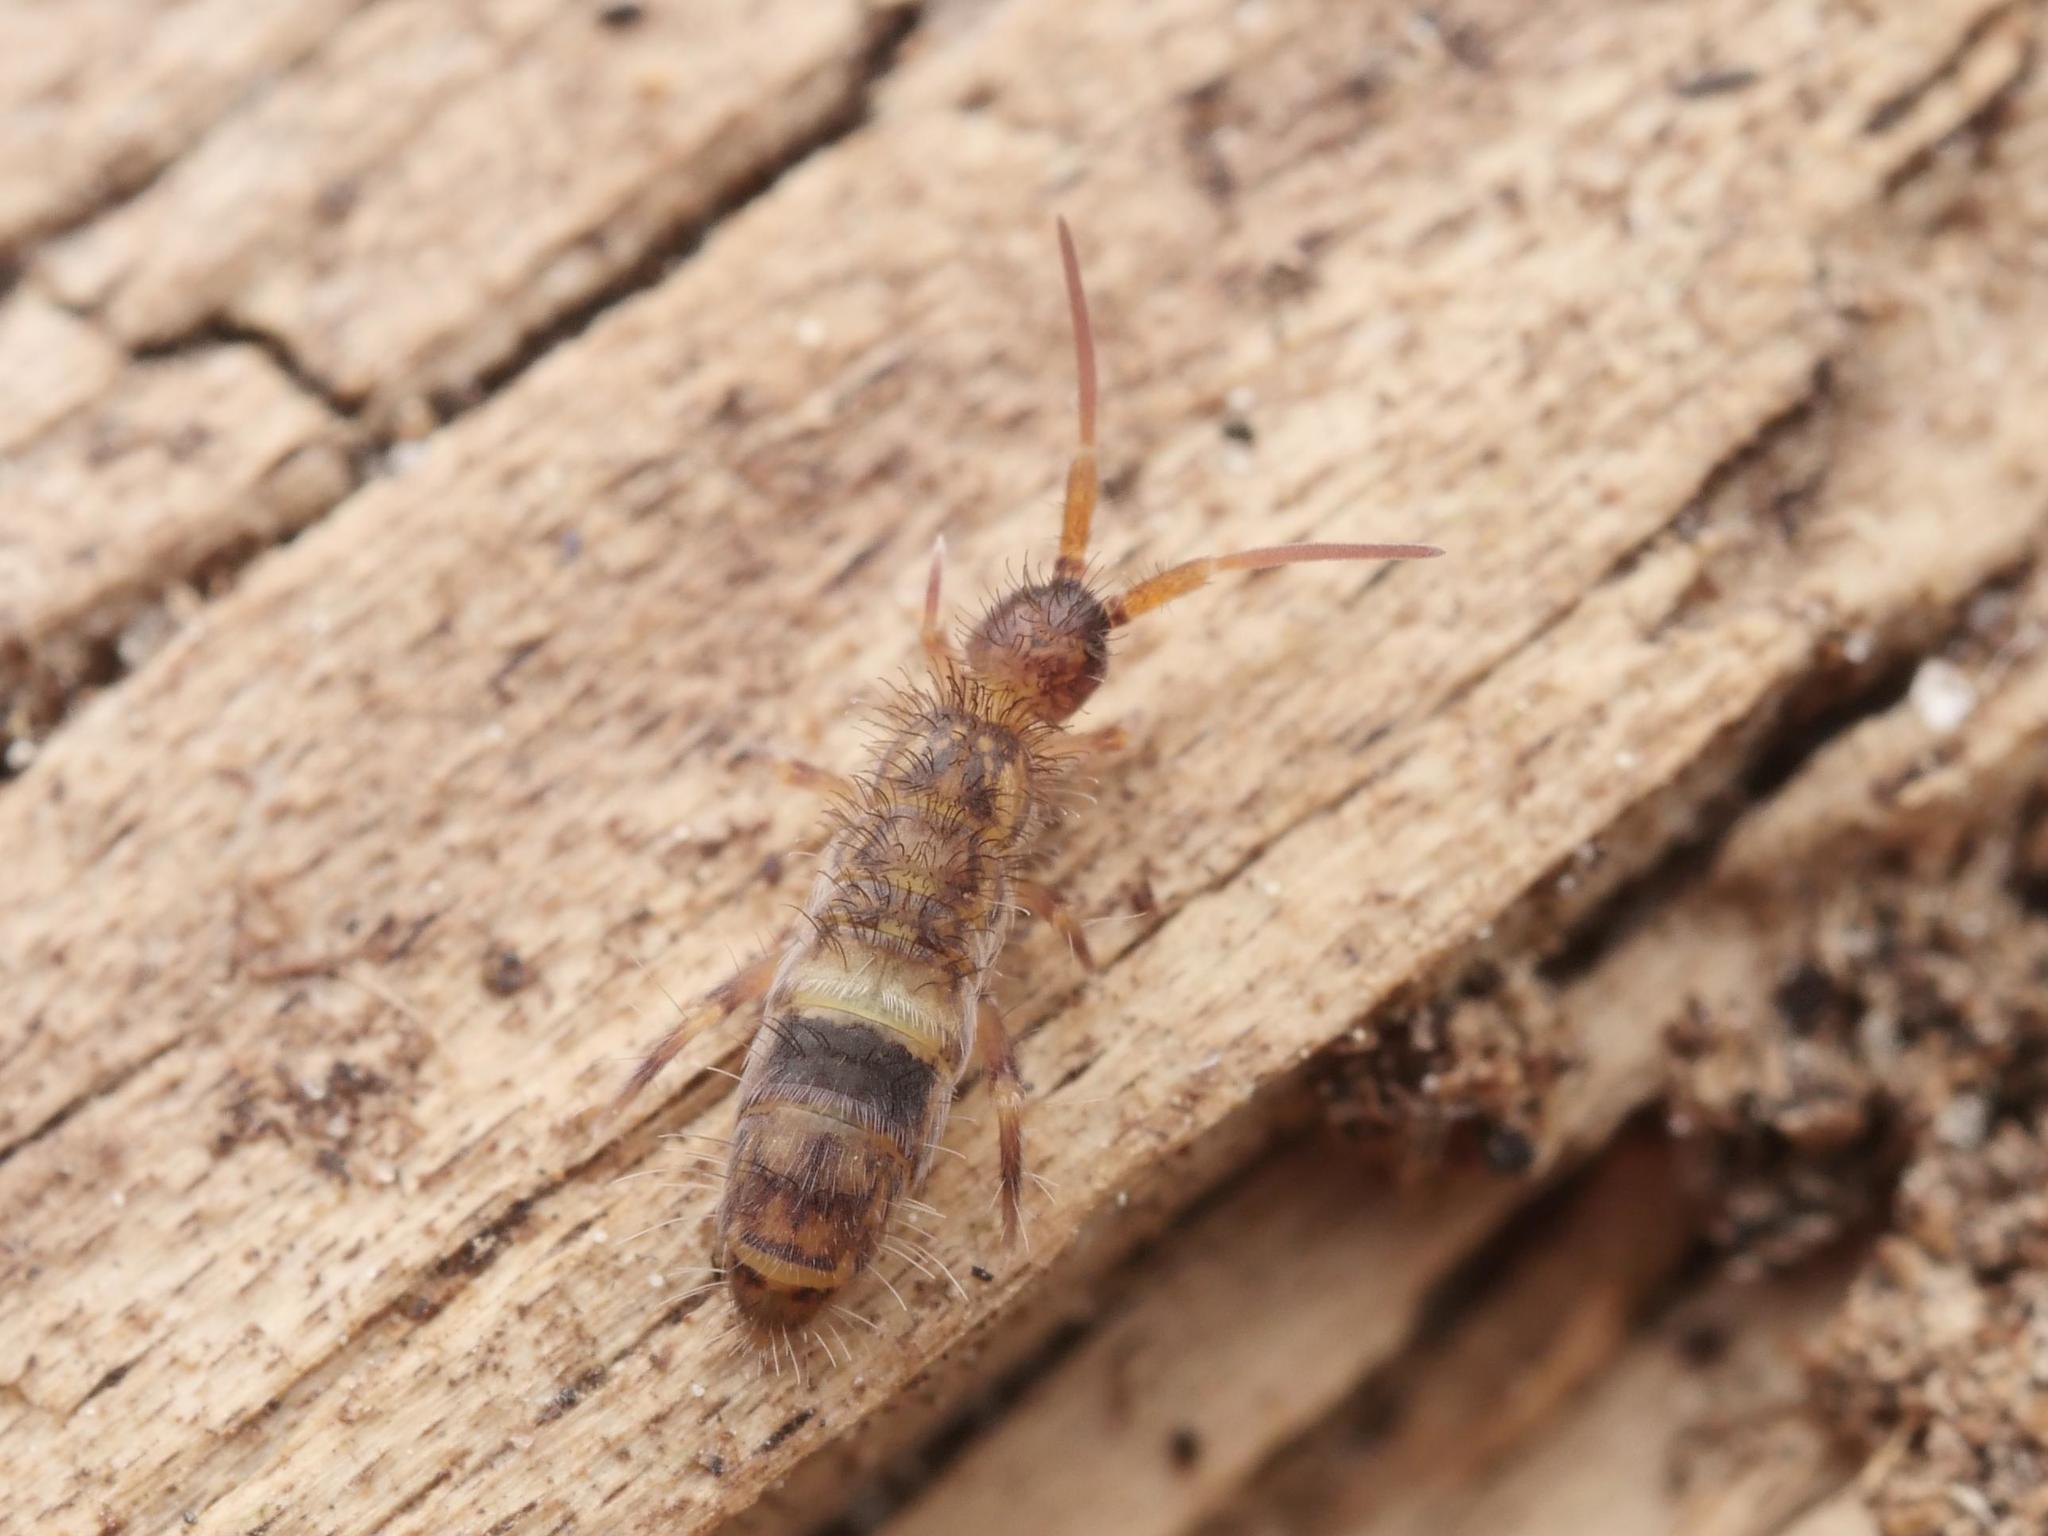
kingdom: Animalia
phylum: Arthropoda
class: Collembola
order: Entomobryomorpha
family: Orchesellidae
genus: Orchesella
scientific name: Orchesella cincta
